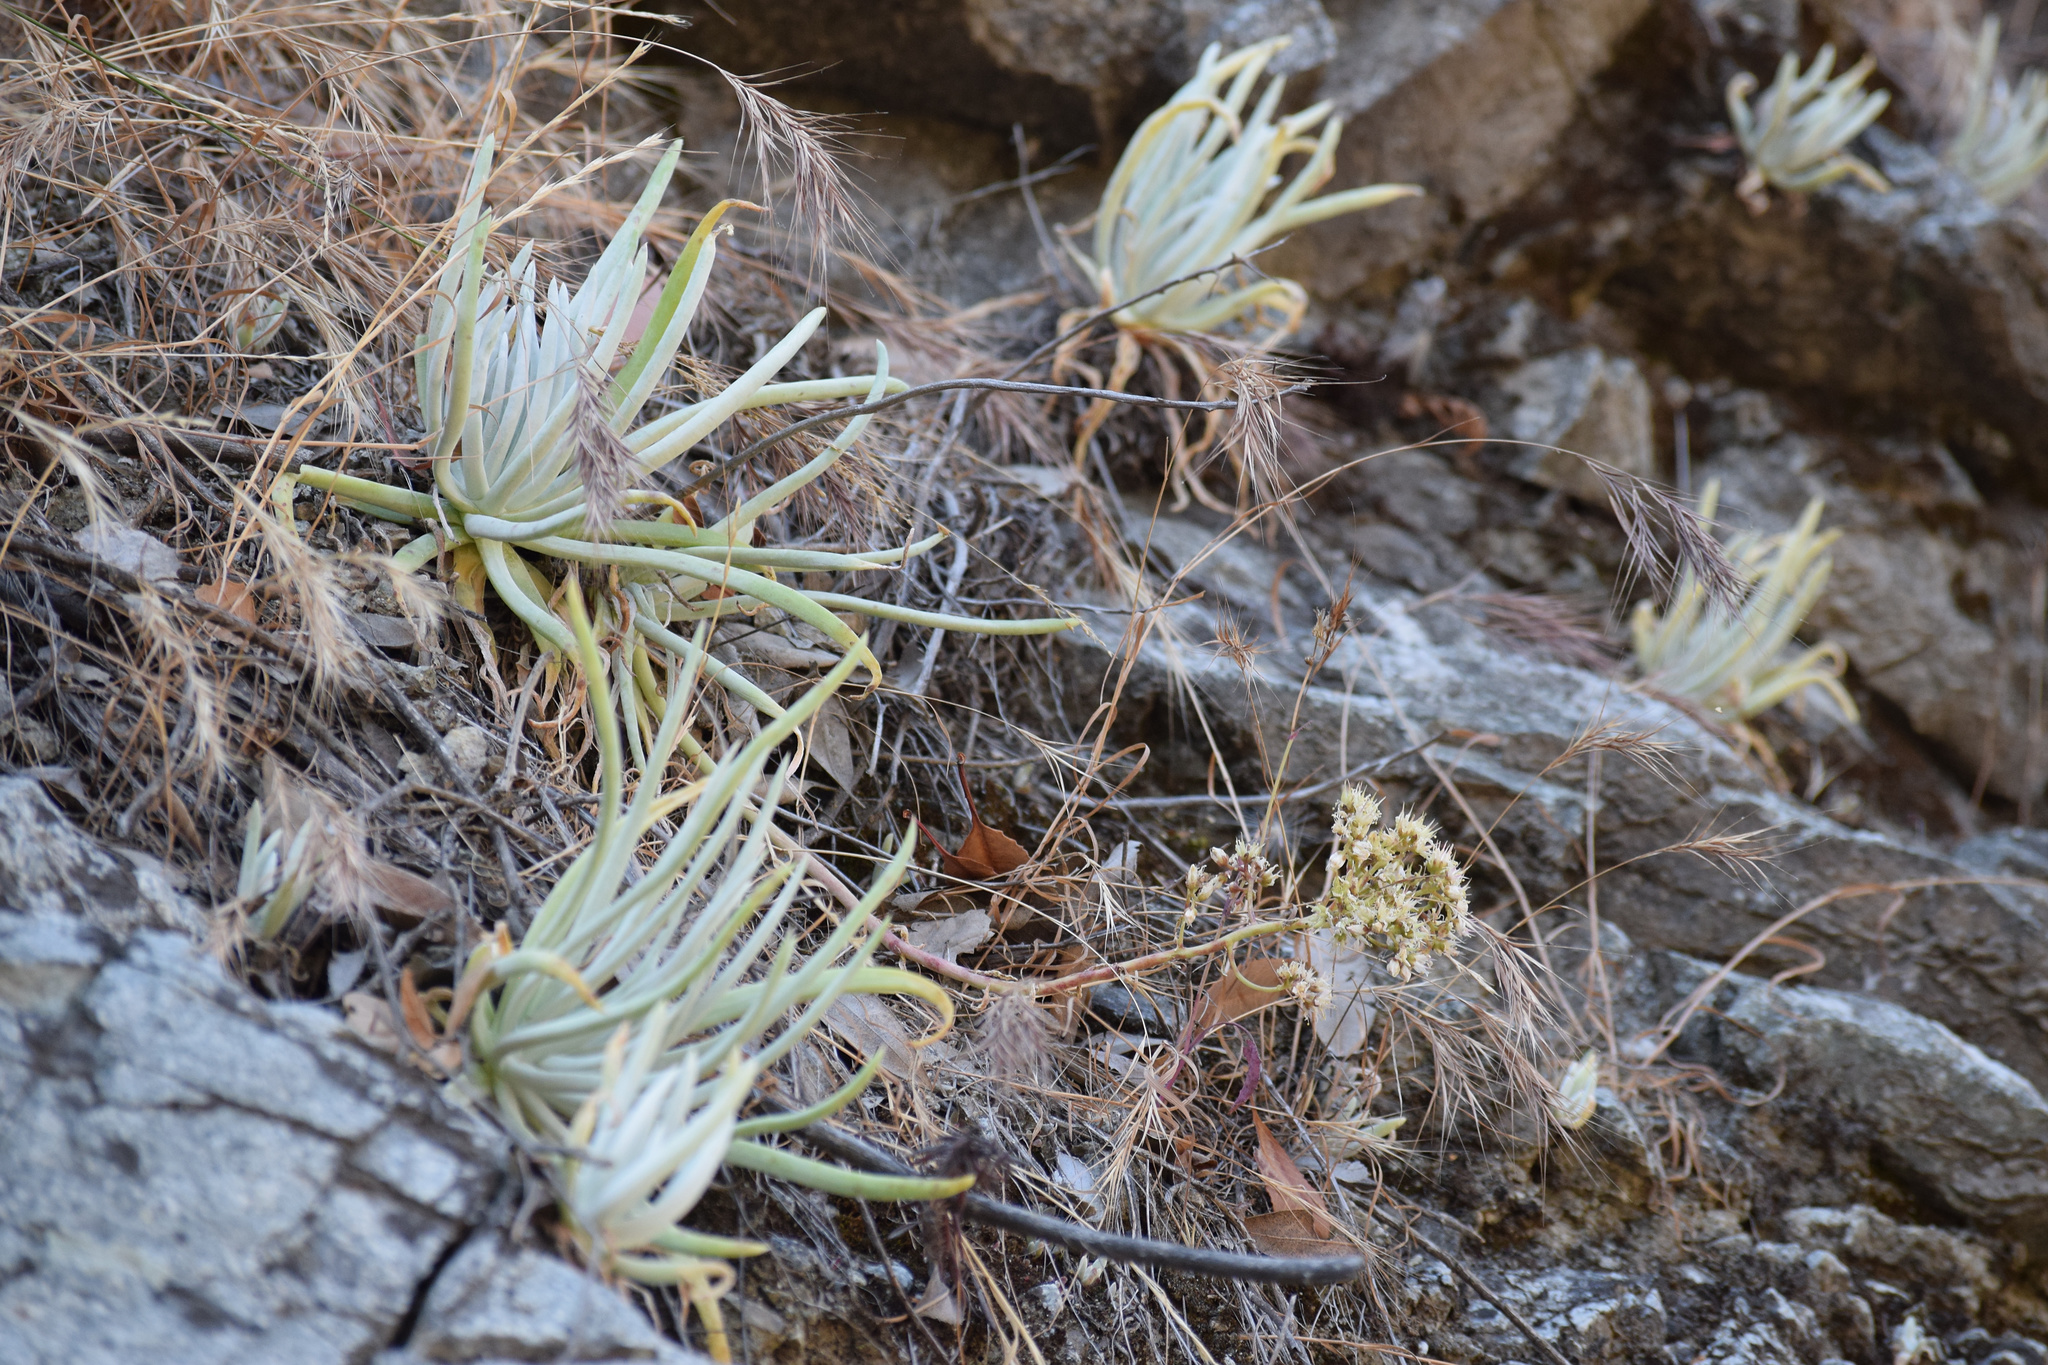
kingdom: Plantae
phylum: Tracheophyta
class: Magnoliopsida
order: Saxifragales
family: Crassulaceae
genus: Dudleya
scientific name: Dudleya densiflora
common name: San gabriel mountains dudleya
